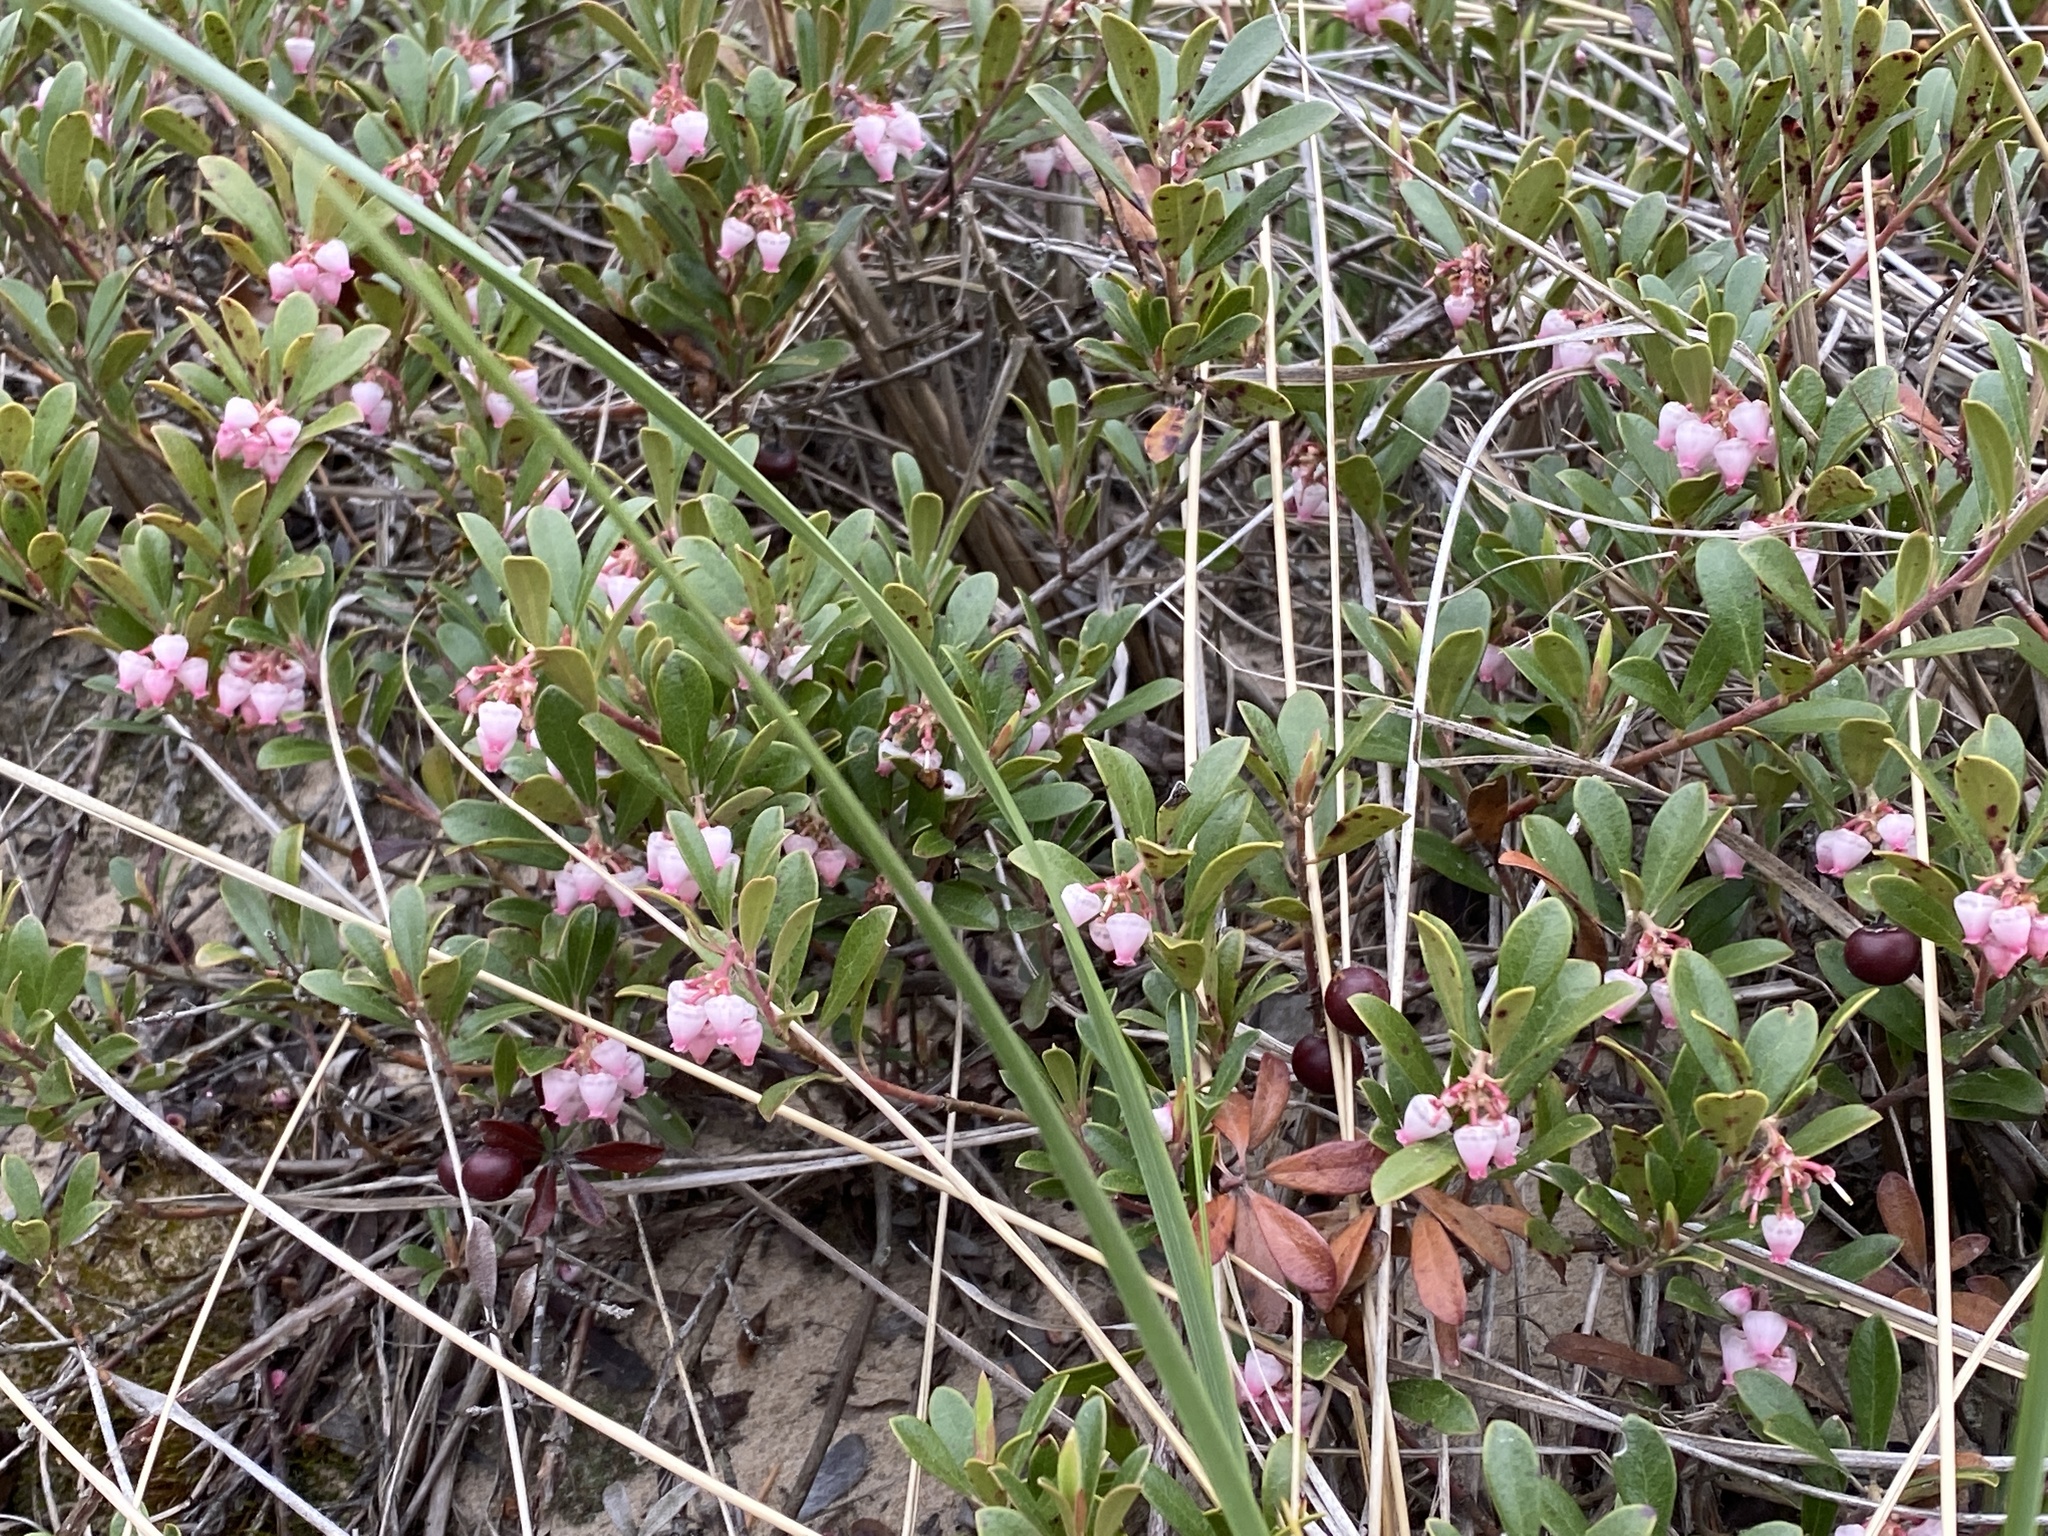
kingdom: Plantae
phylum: Tracheophyta
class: Magnoliopsida
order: Ericales
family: Ericaceae
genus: Arctostaphylos
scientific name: Arctostaphylos uva-ursi
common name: Bearberry
